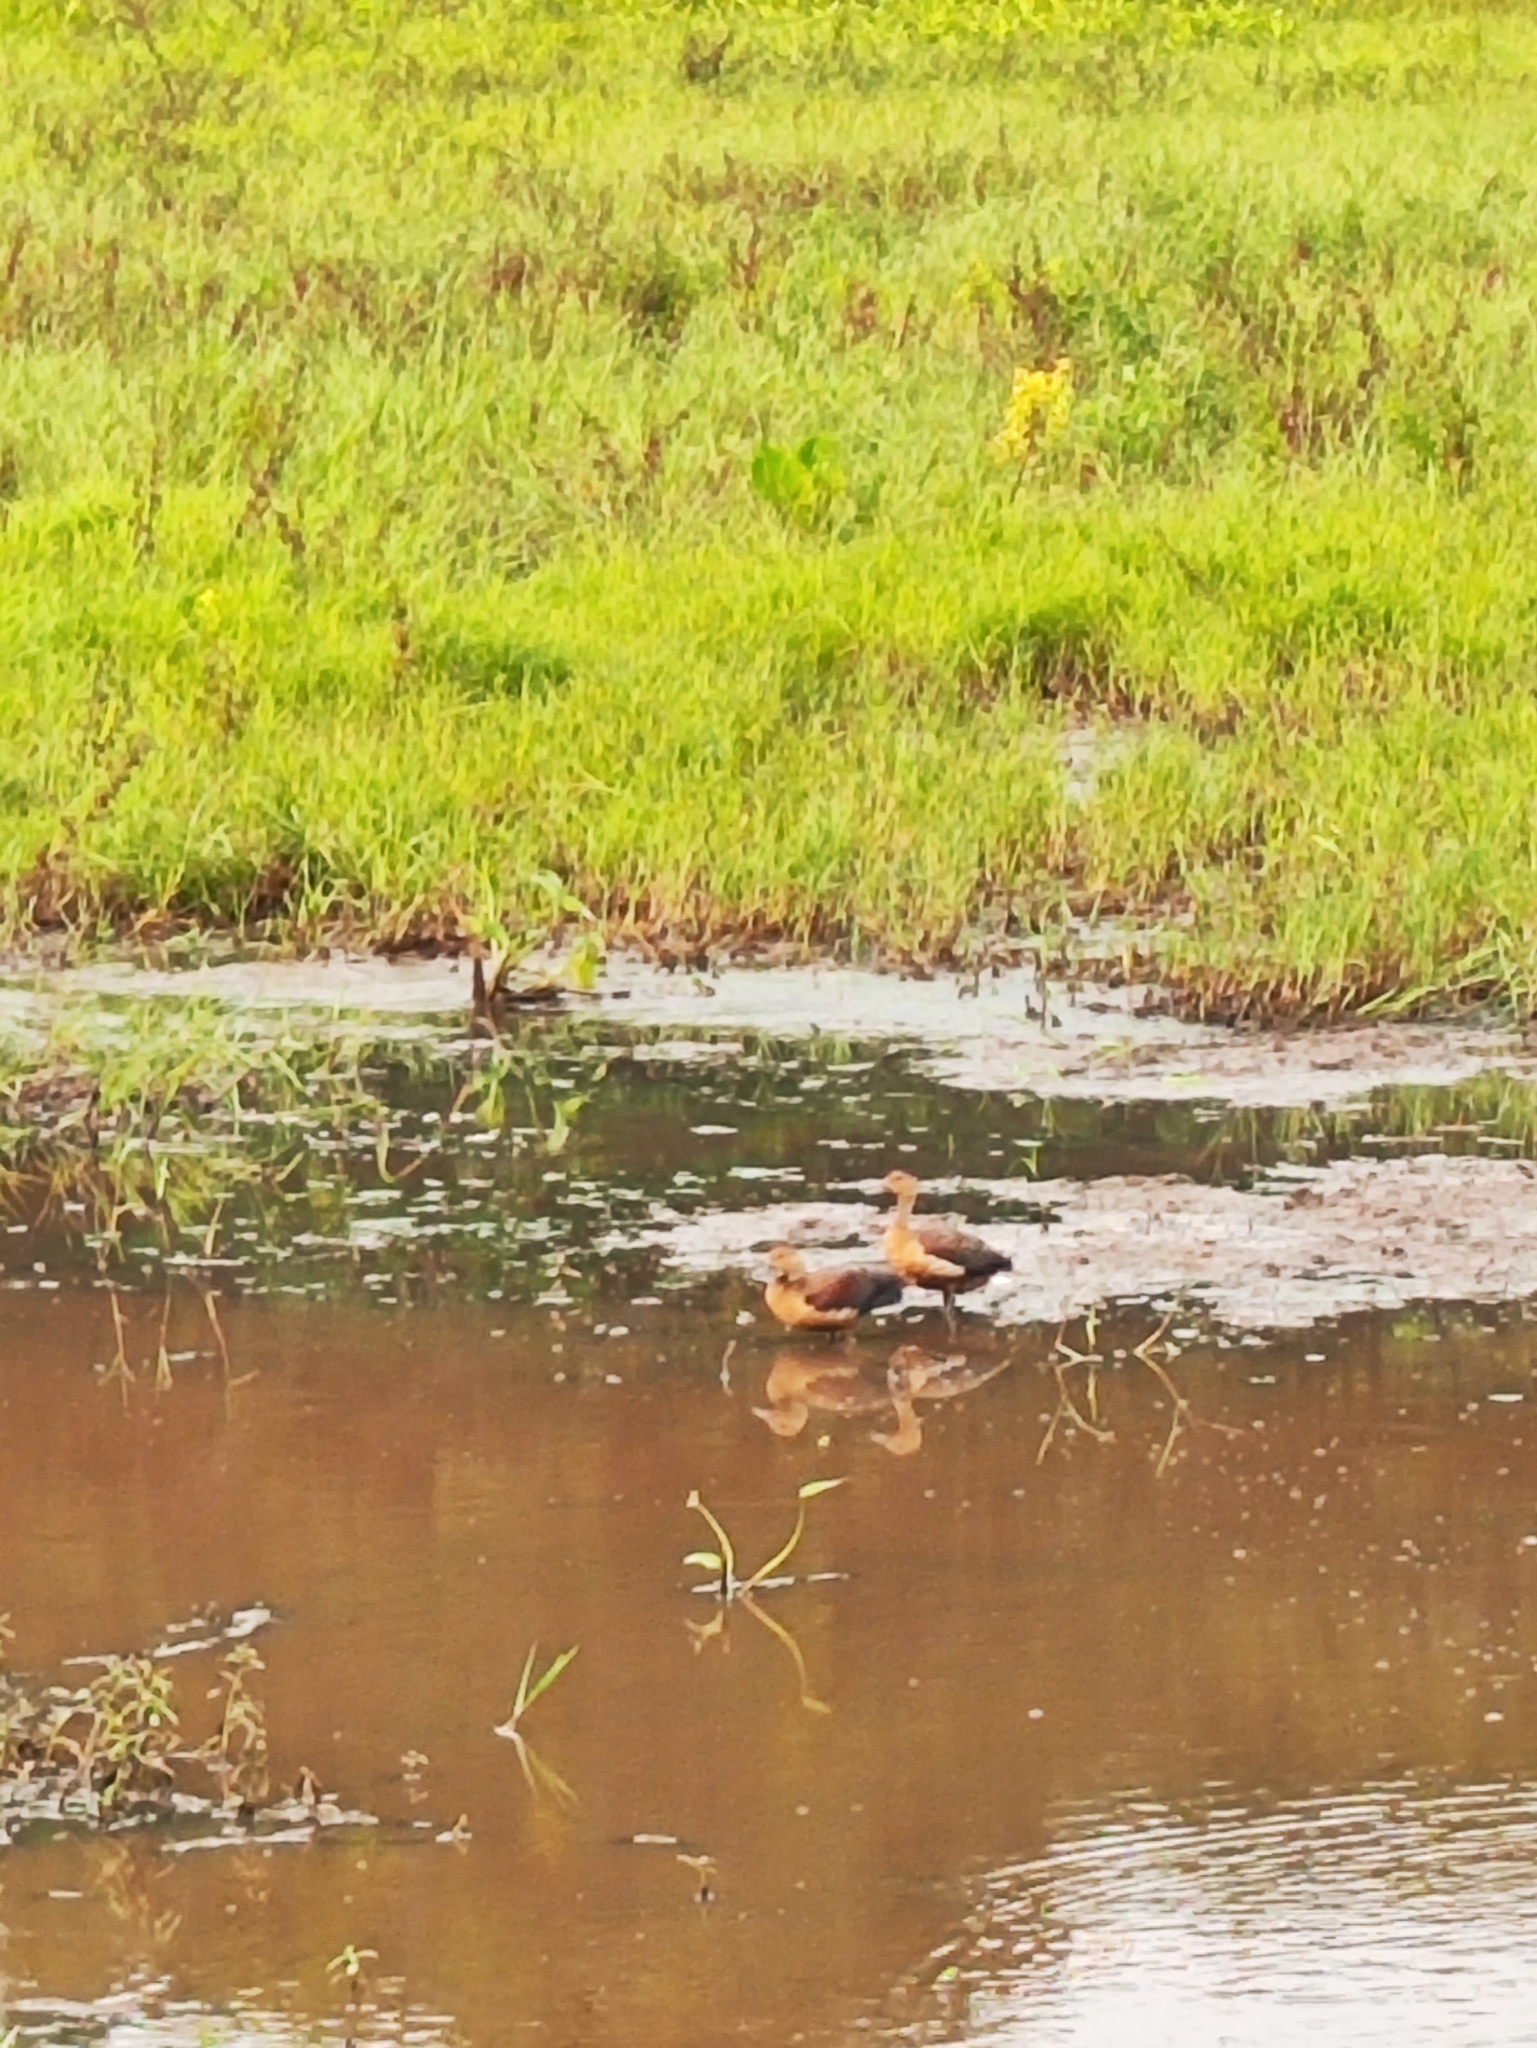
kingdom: Animalia
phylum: Chordata
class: Aves
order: Anseriformes
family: Anatidae
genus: Dendrocygna
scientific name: Dendrocygna javanica
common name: Lesser whistling-duck
